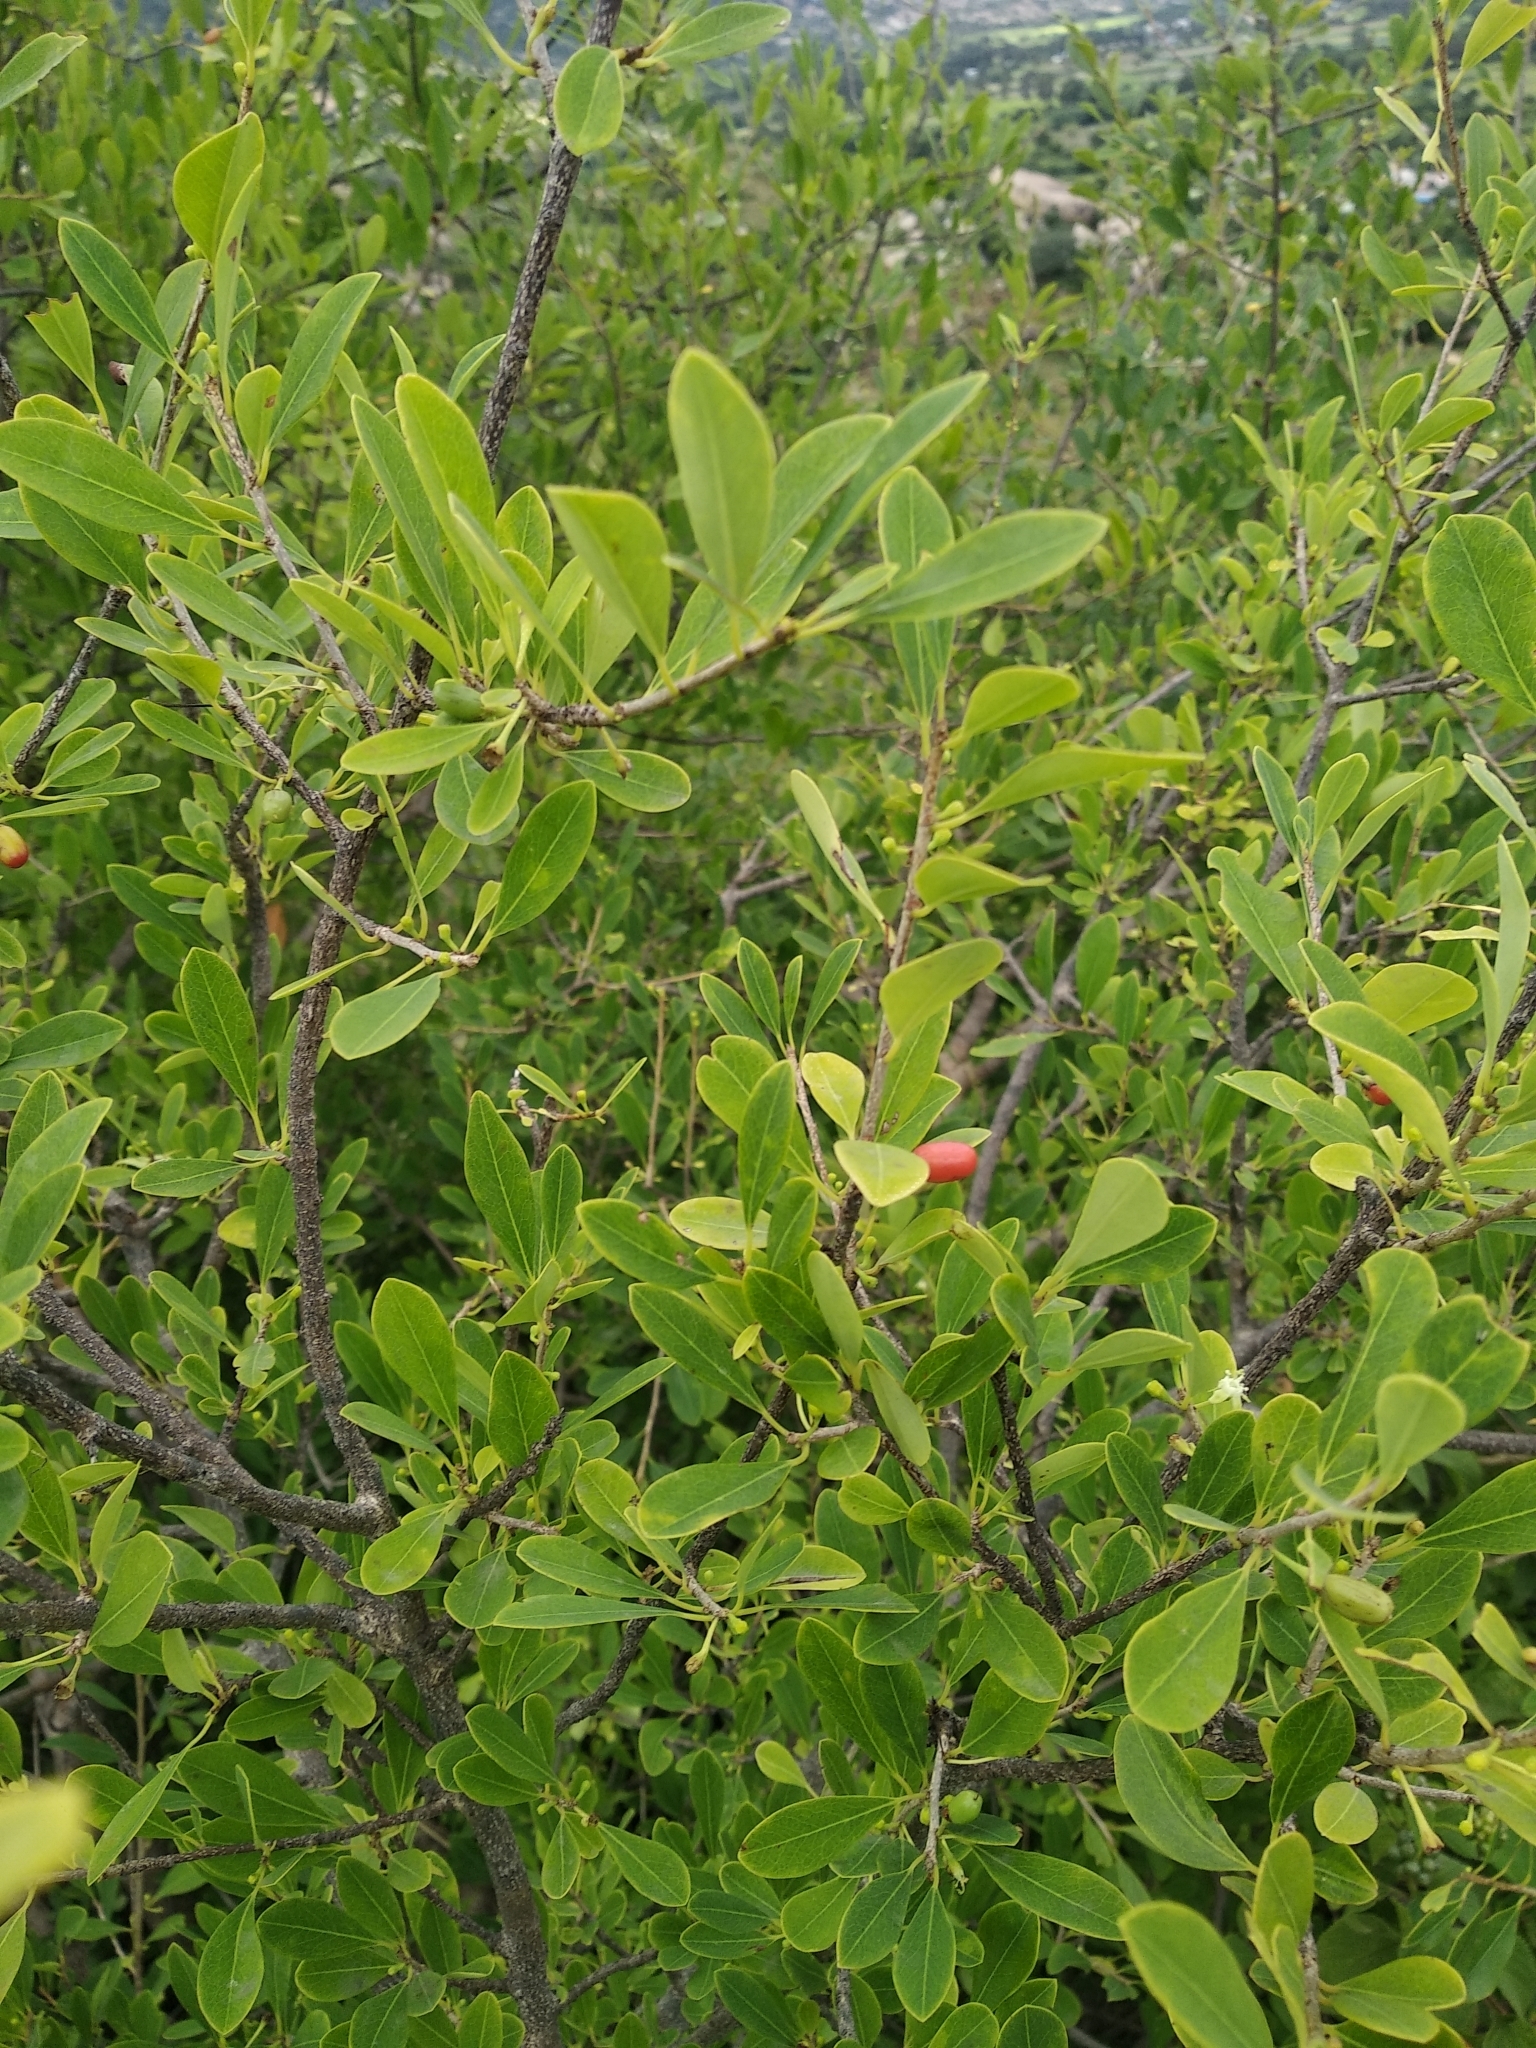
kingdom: Plantae
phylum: Tracheophyta
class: Magnoliopsida
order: Malpighiales
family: Erythroxylaceae
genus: Erythroxylum
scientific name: Erythroxylum monogynum
